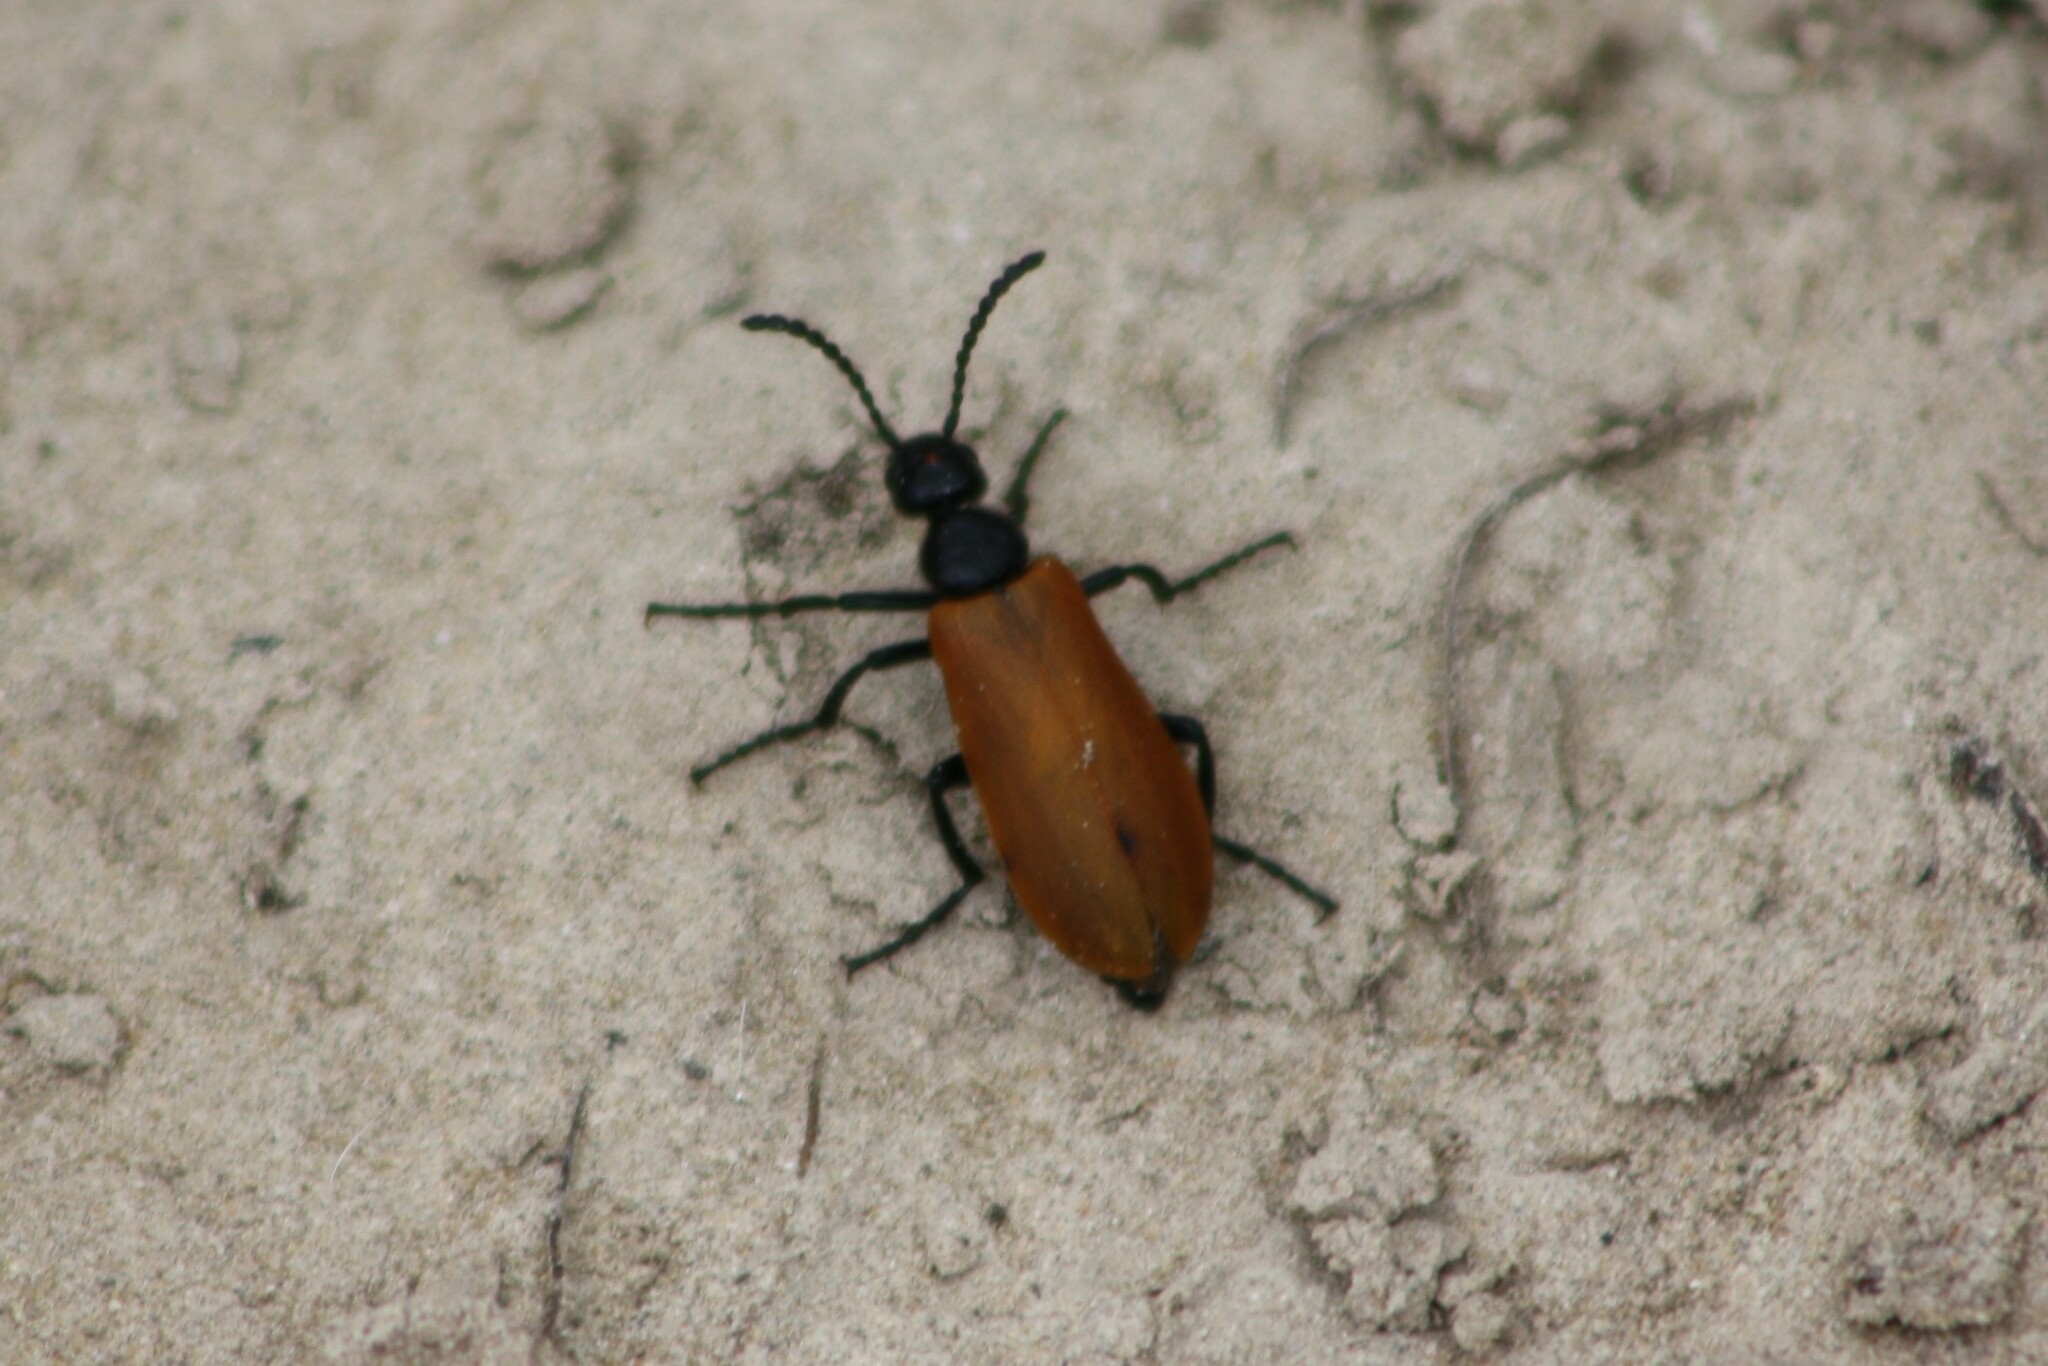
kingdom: Animalia
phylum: Arthropoda
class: Insecta
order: Coleoptera
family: Meloidae
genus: Lytta
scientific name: Lytta fulvipennis
